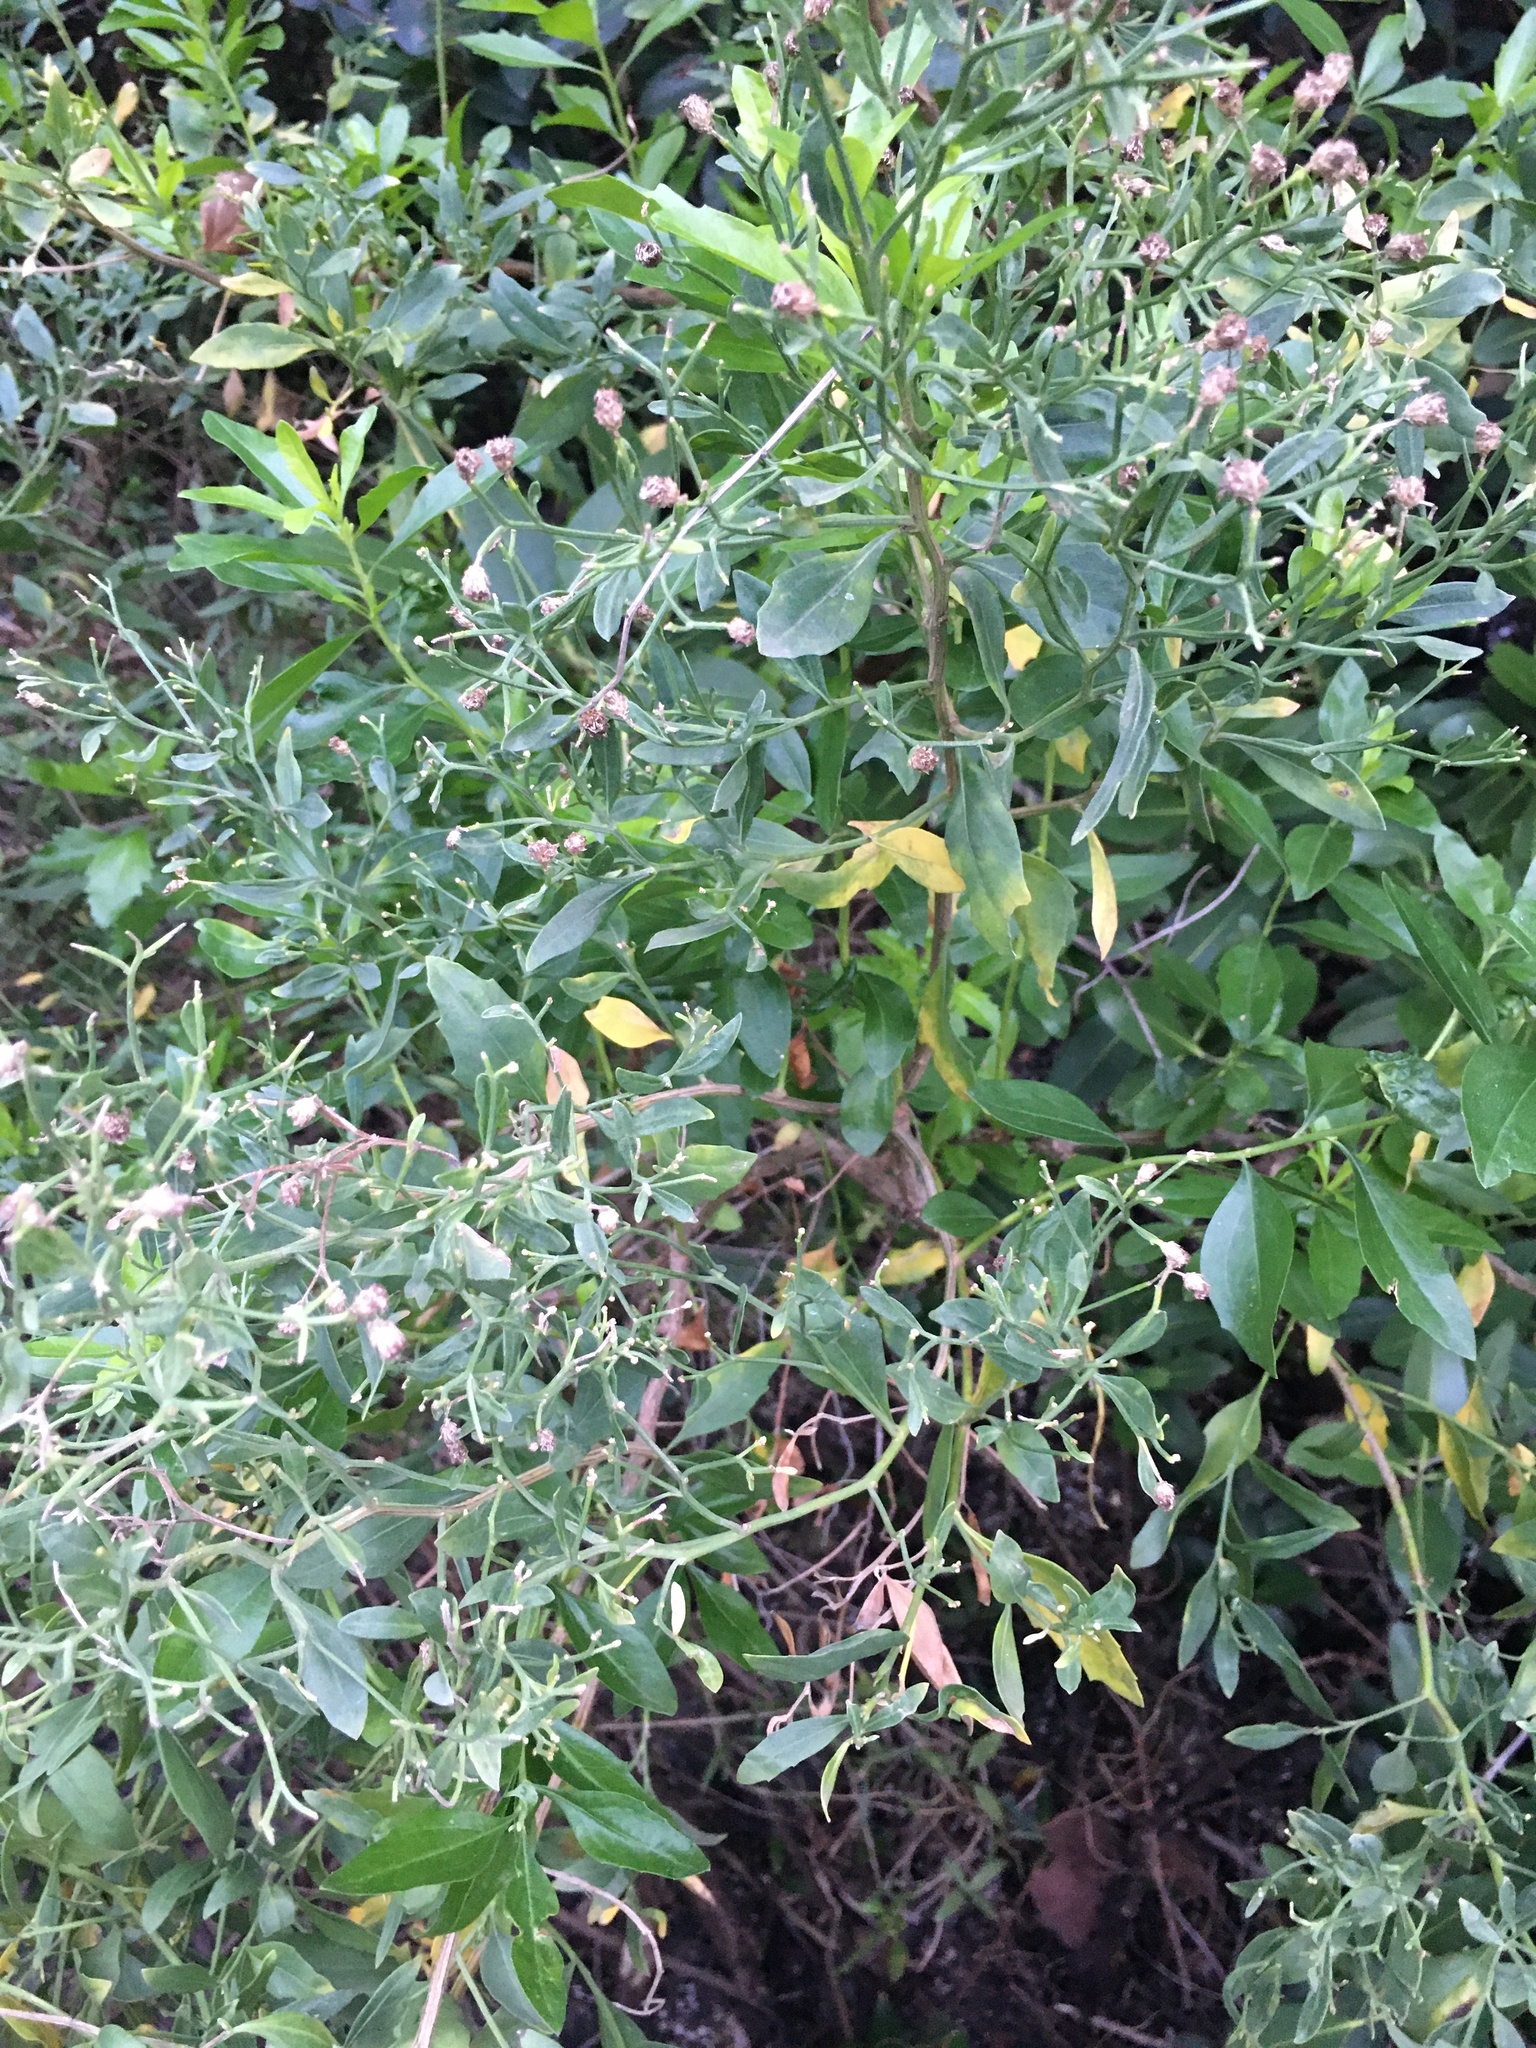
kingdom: Plantae
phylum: Tracheophyta
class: Magnoliopsida
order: Asterales
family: Asteraceae
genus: Baccharis
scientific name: Baccharis halimifolia
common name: Eastern baccharis
